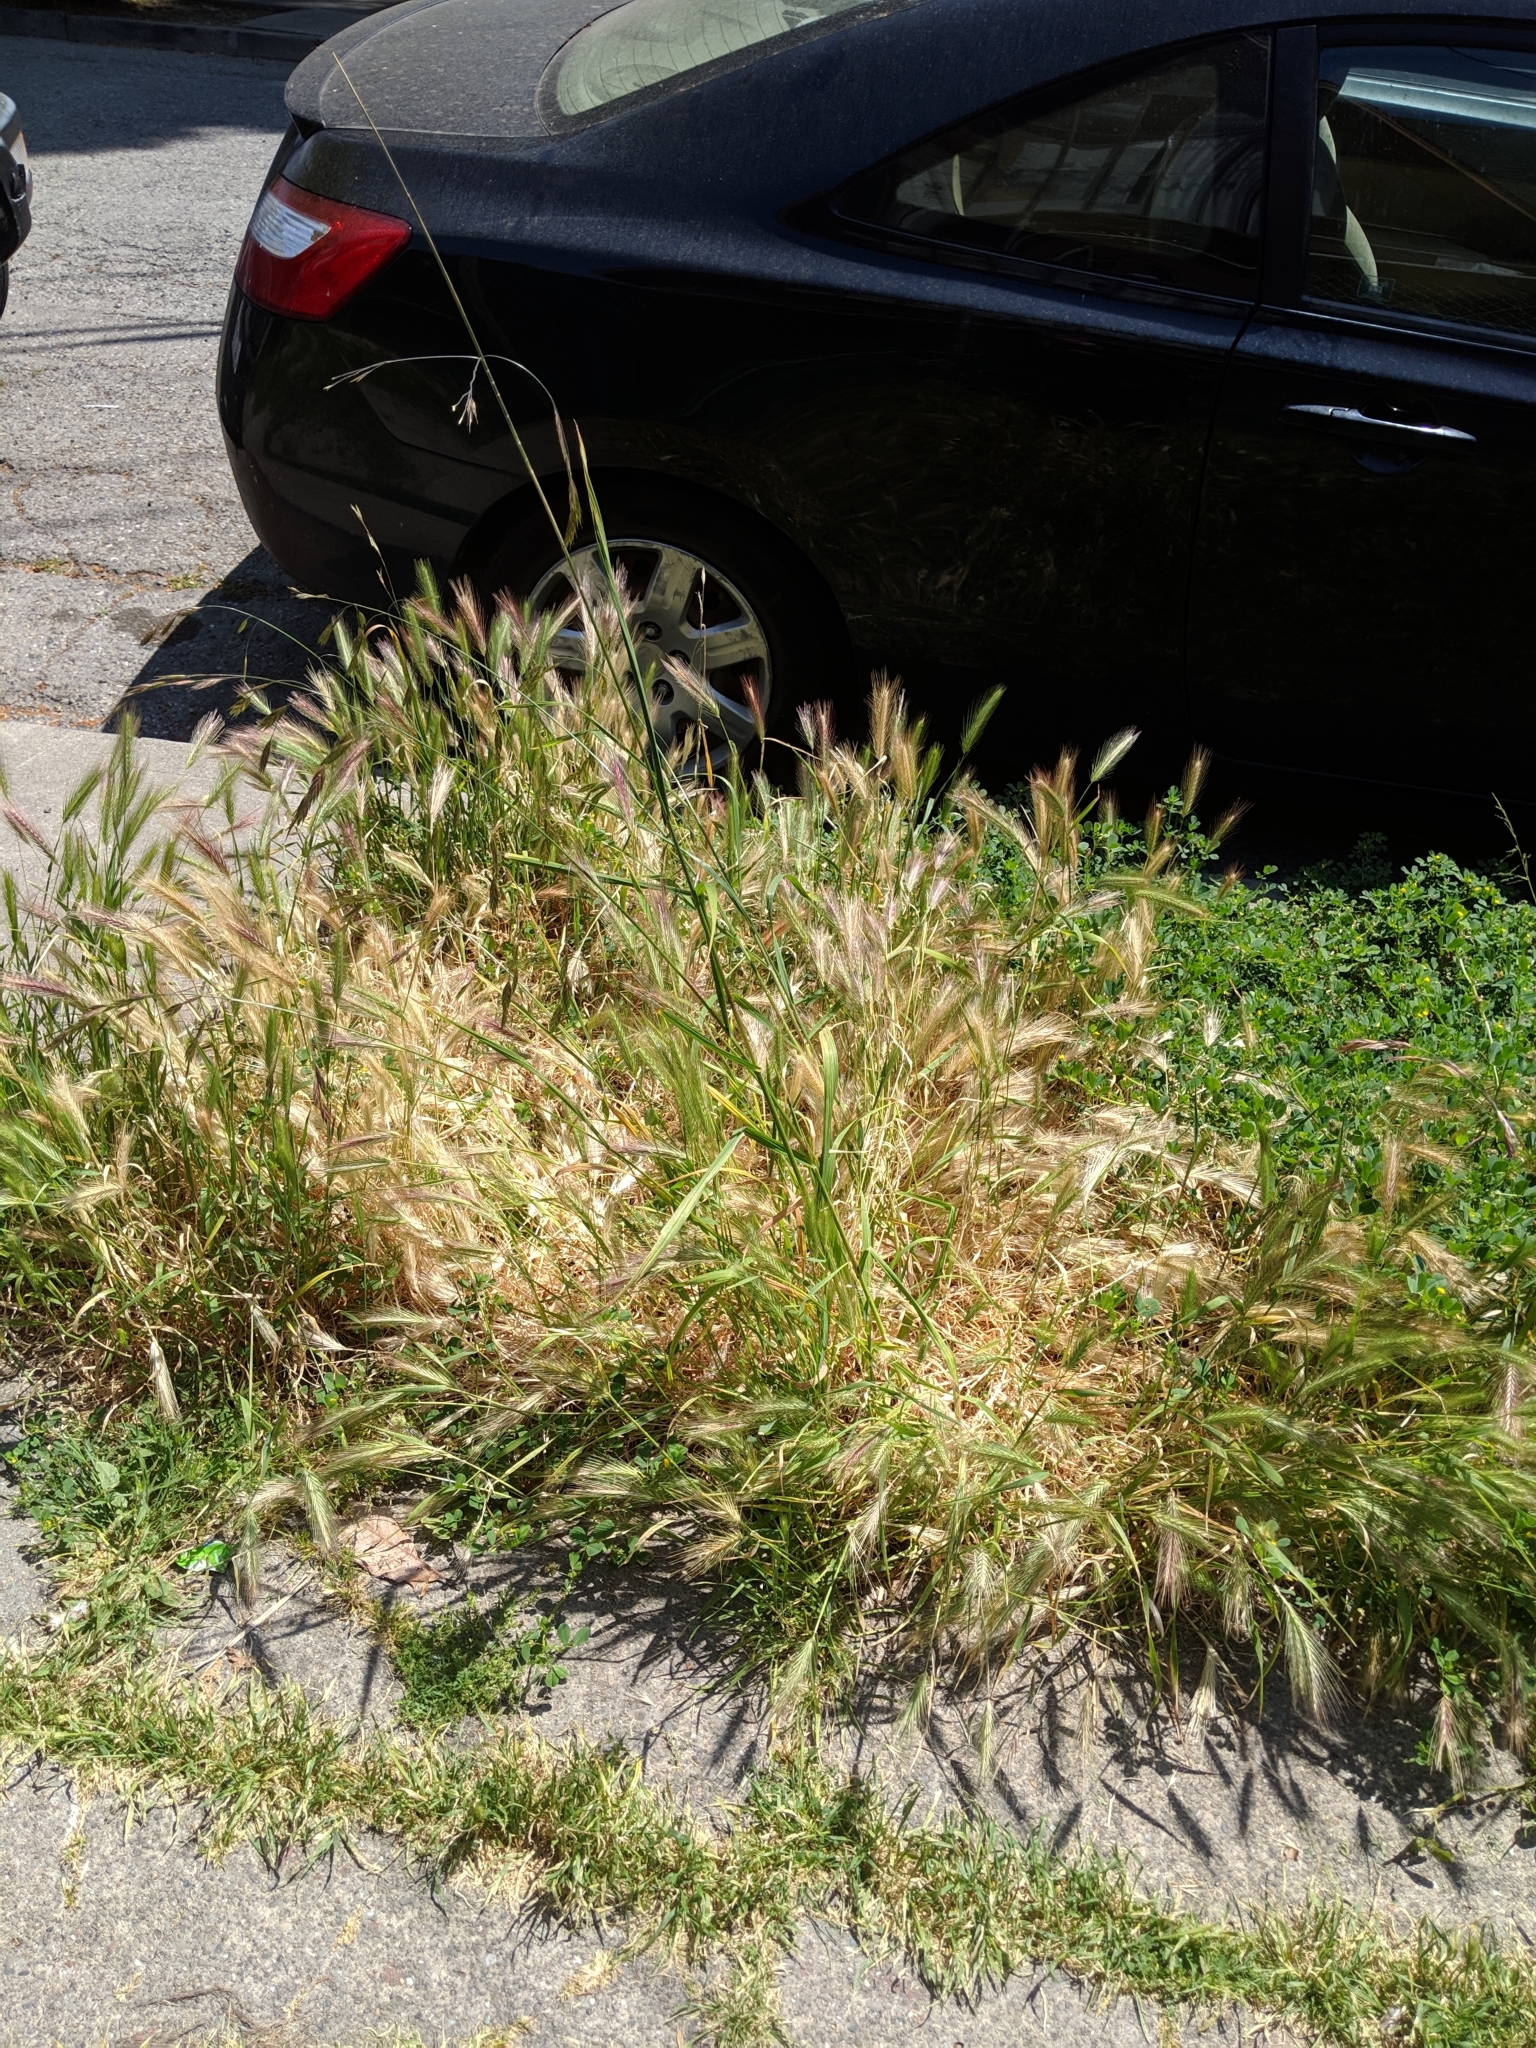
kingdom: Plantae
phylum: Tracheophyta
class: Liliopsida
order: Poales
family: Poaceae
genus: Bromus
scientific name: Bromus catharticus
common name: Rescuegrass
